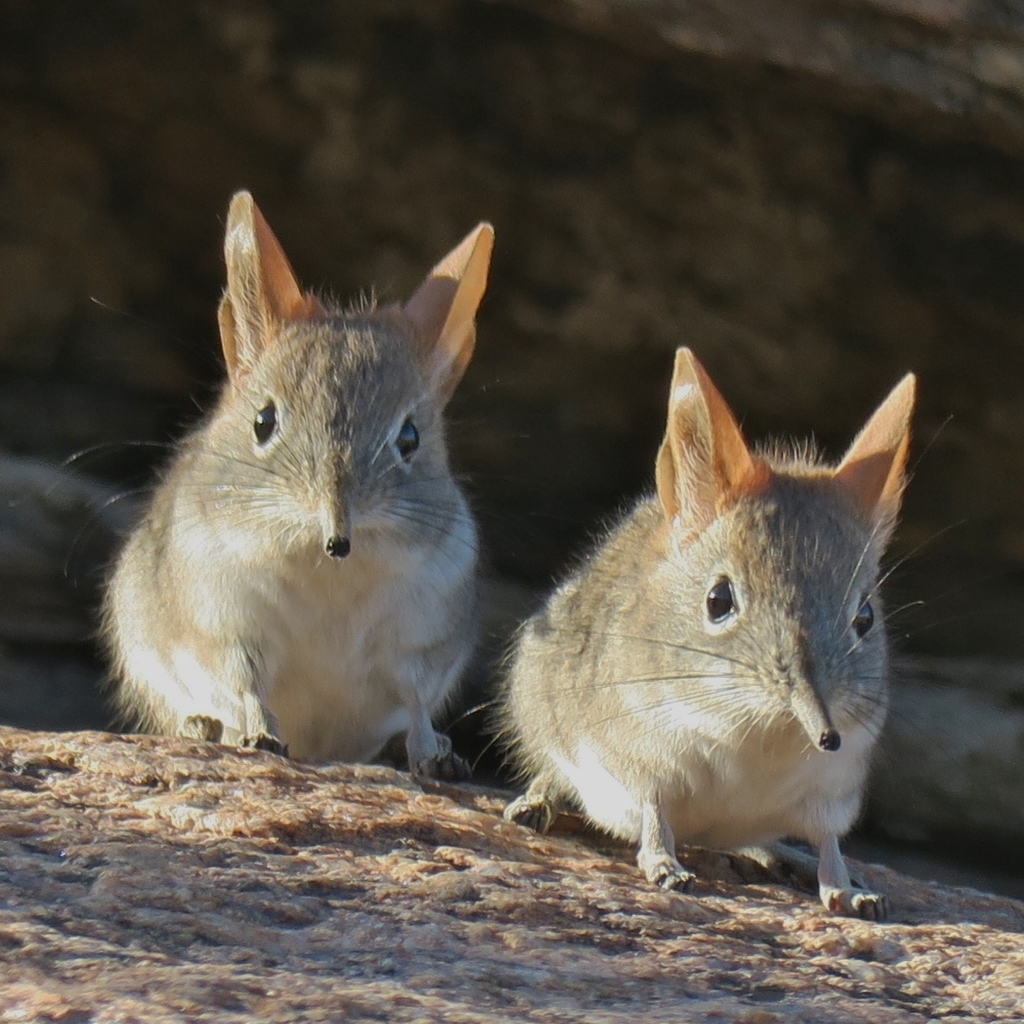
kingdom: Animalia
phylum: Chordata
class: Mammalia
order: Macroscelidea
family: Macroscelididae
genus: Elephantulus
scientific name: Elephantulus rupestris
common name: Western rock elephant shrew
